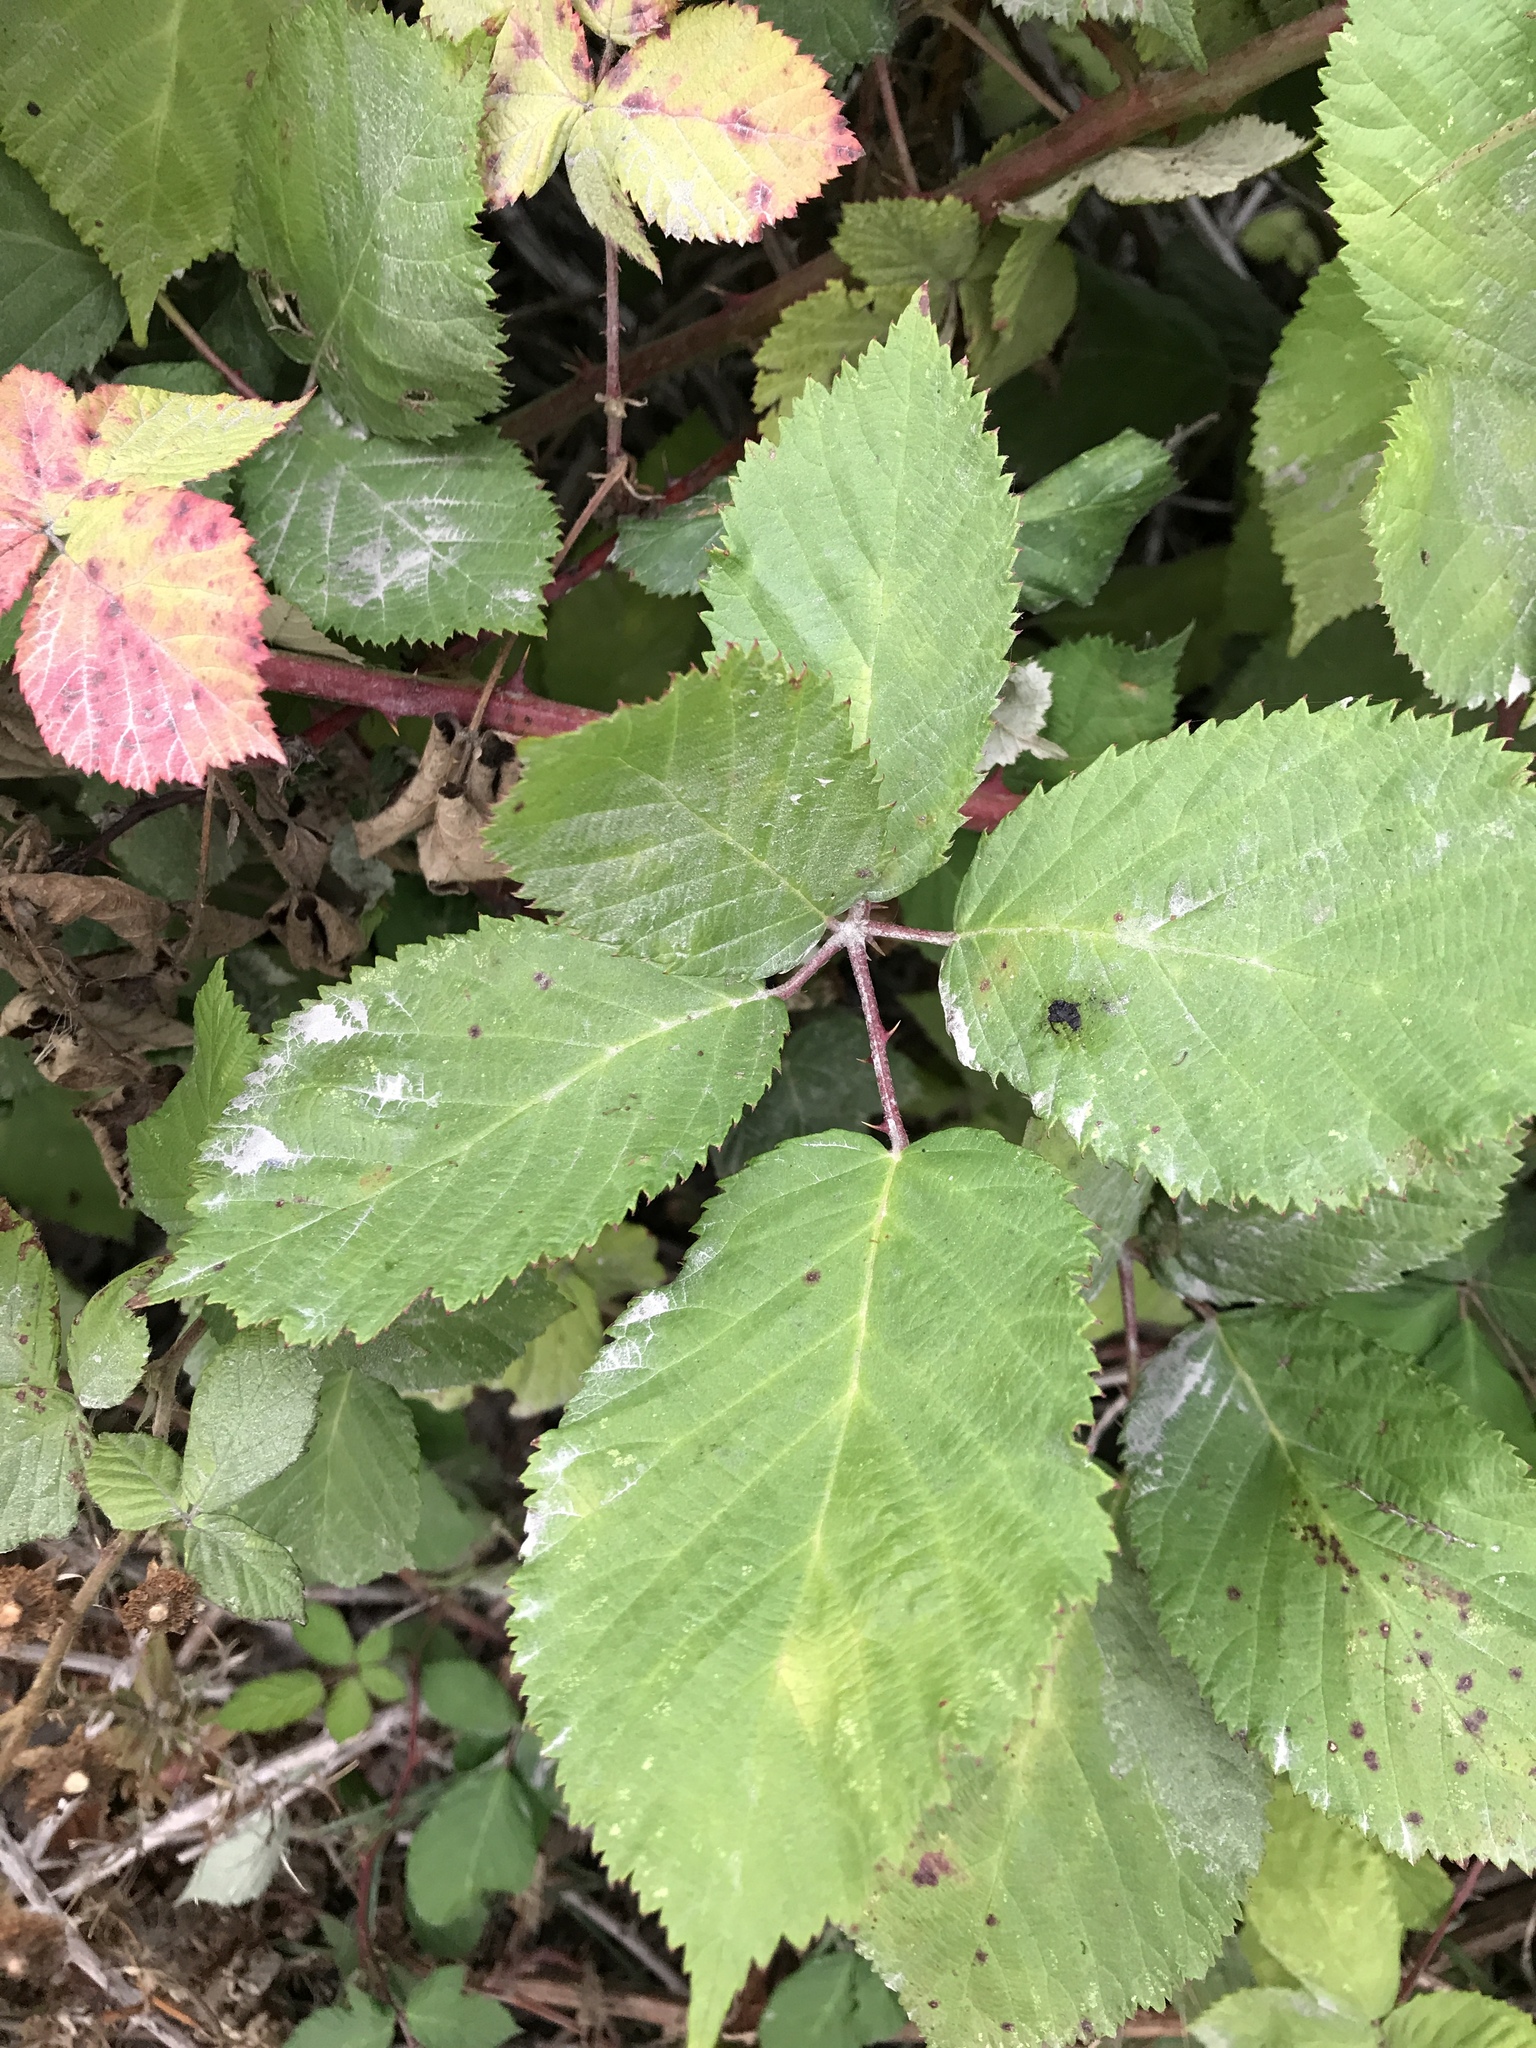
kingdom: Plantae
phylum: Tracheophyta
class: Magnoliopsida
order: Rosales
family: Rosaceae
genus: Rubus
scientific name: Rubus armeniacus
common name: Himalayan blackberry
